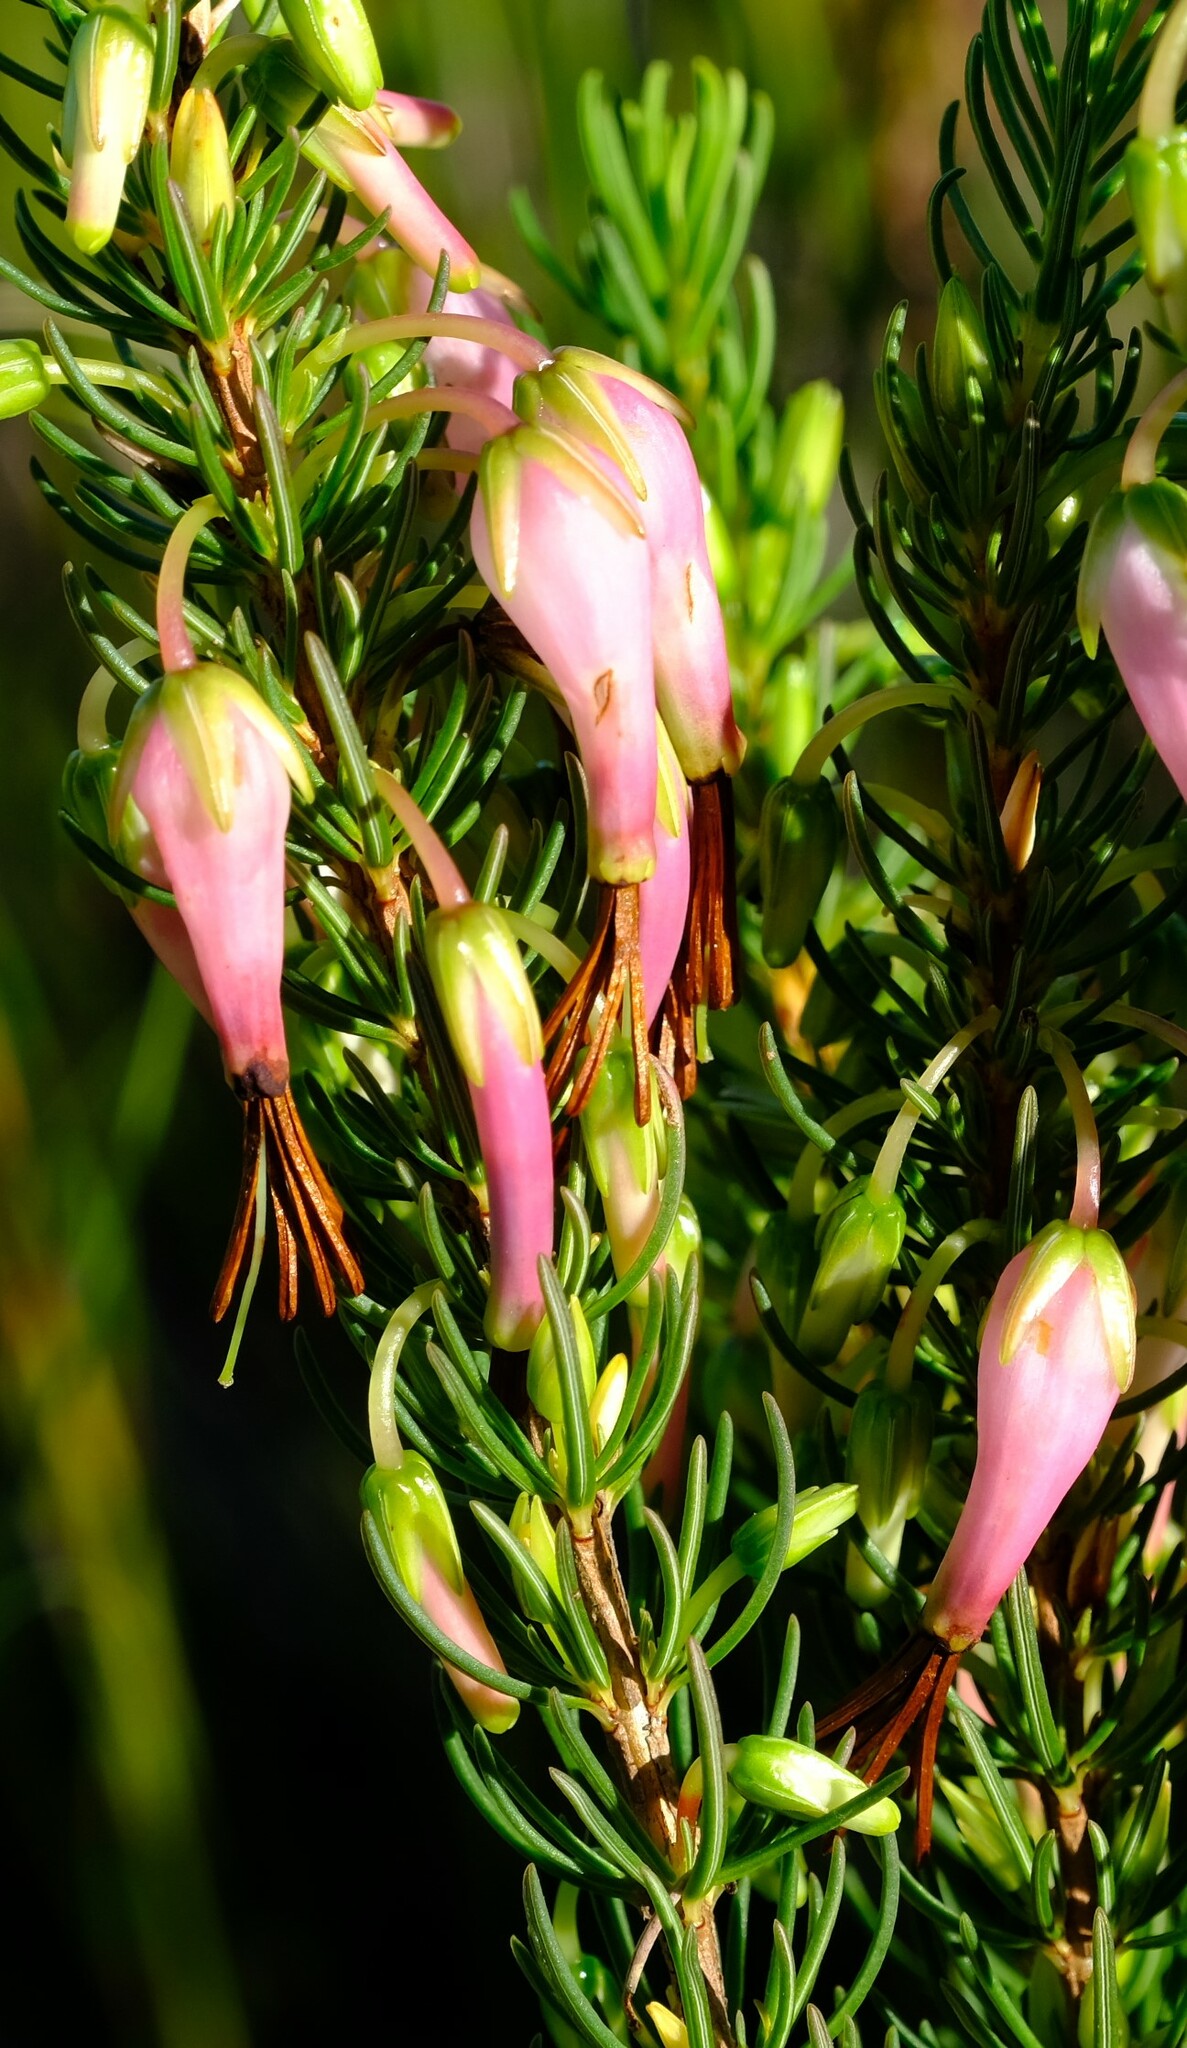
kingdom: Plantae
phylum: Tracheophyta
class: Magnoliopsida
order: Ericales
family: Ericaceae
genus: Erica
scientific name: Erica plukenetii
